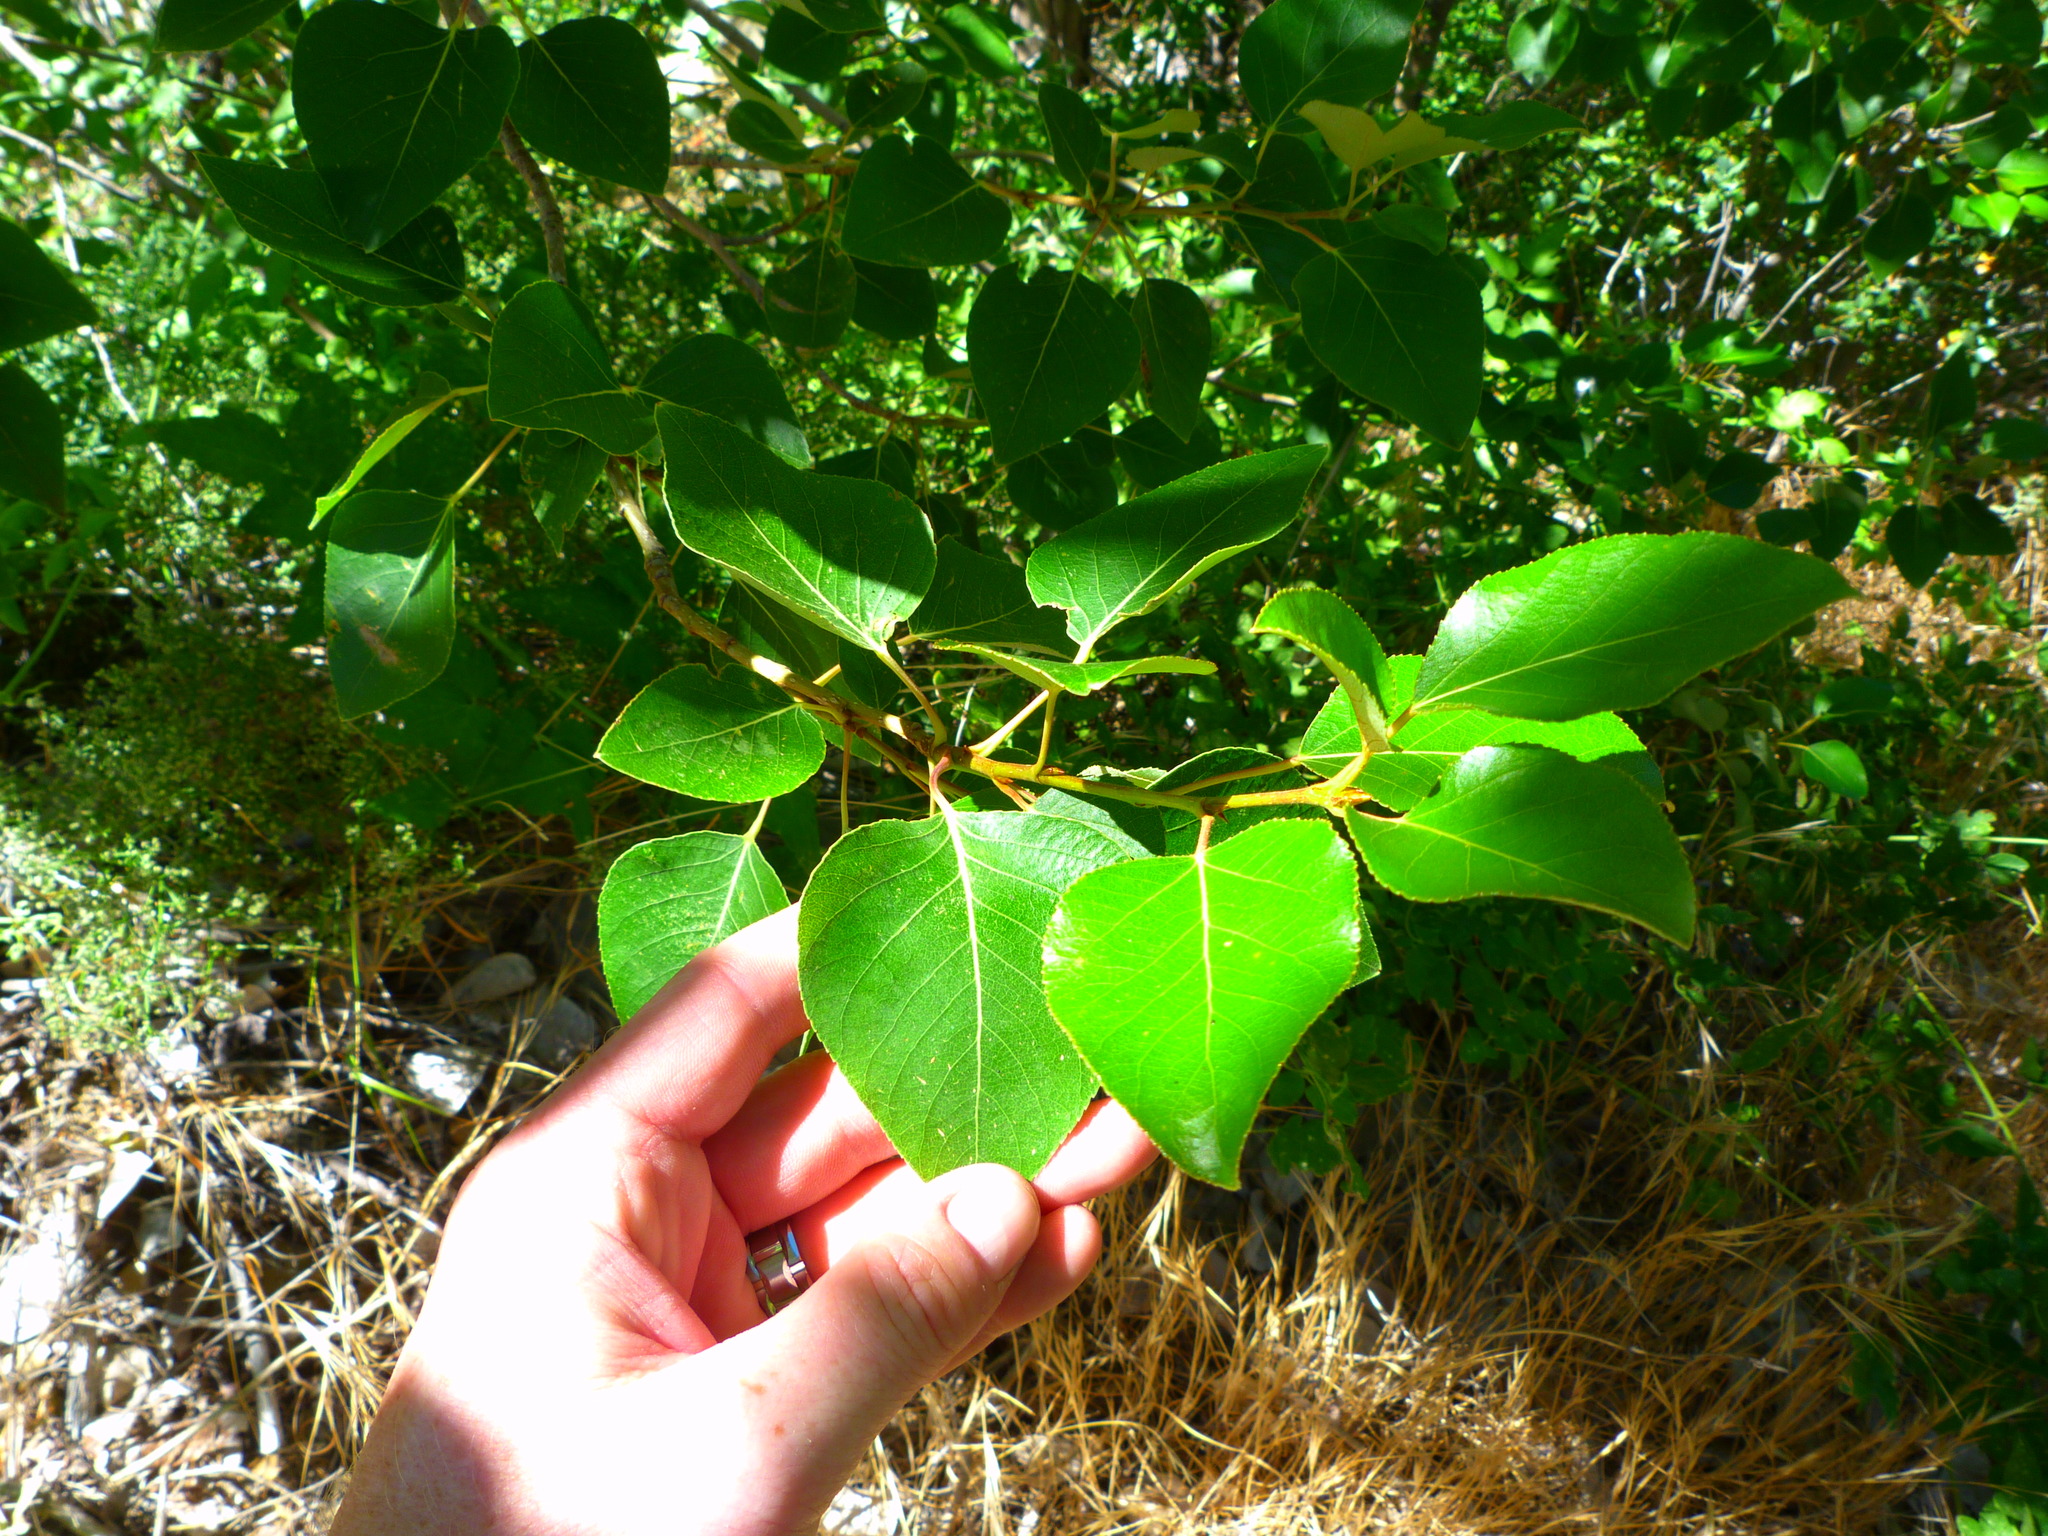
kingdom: Plantae
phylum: Tracheophyta
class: Magnoliopsida
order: Malpighiales
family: Salicaceae
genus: Populus
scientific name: Populus trichocarpa
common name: Black cottonwood
